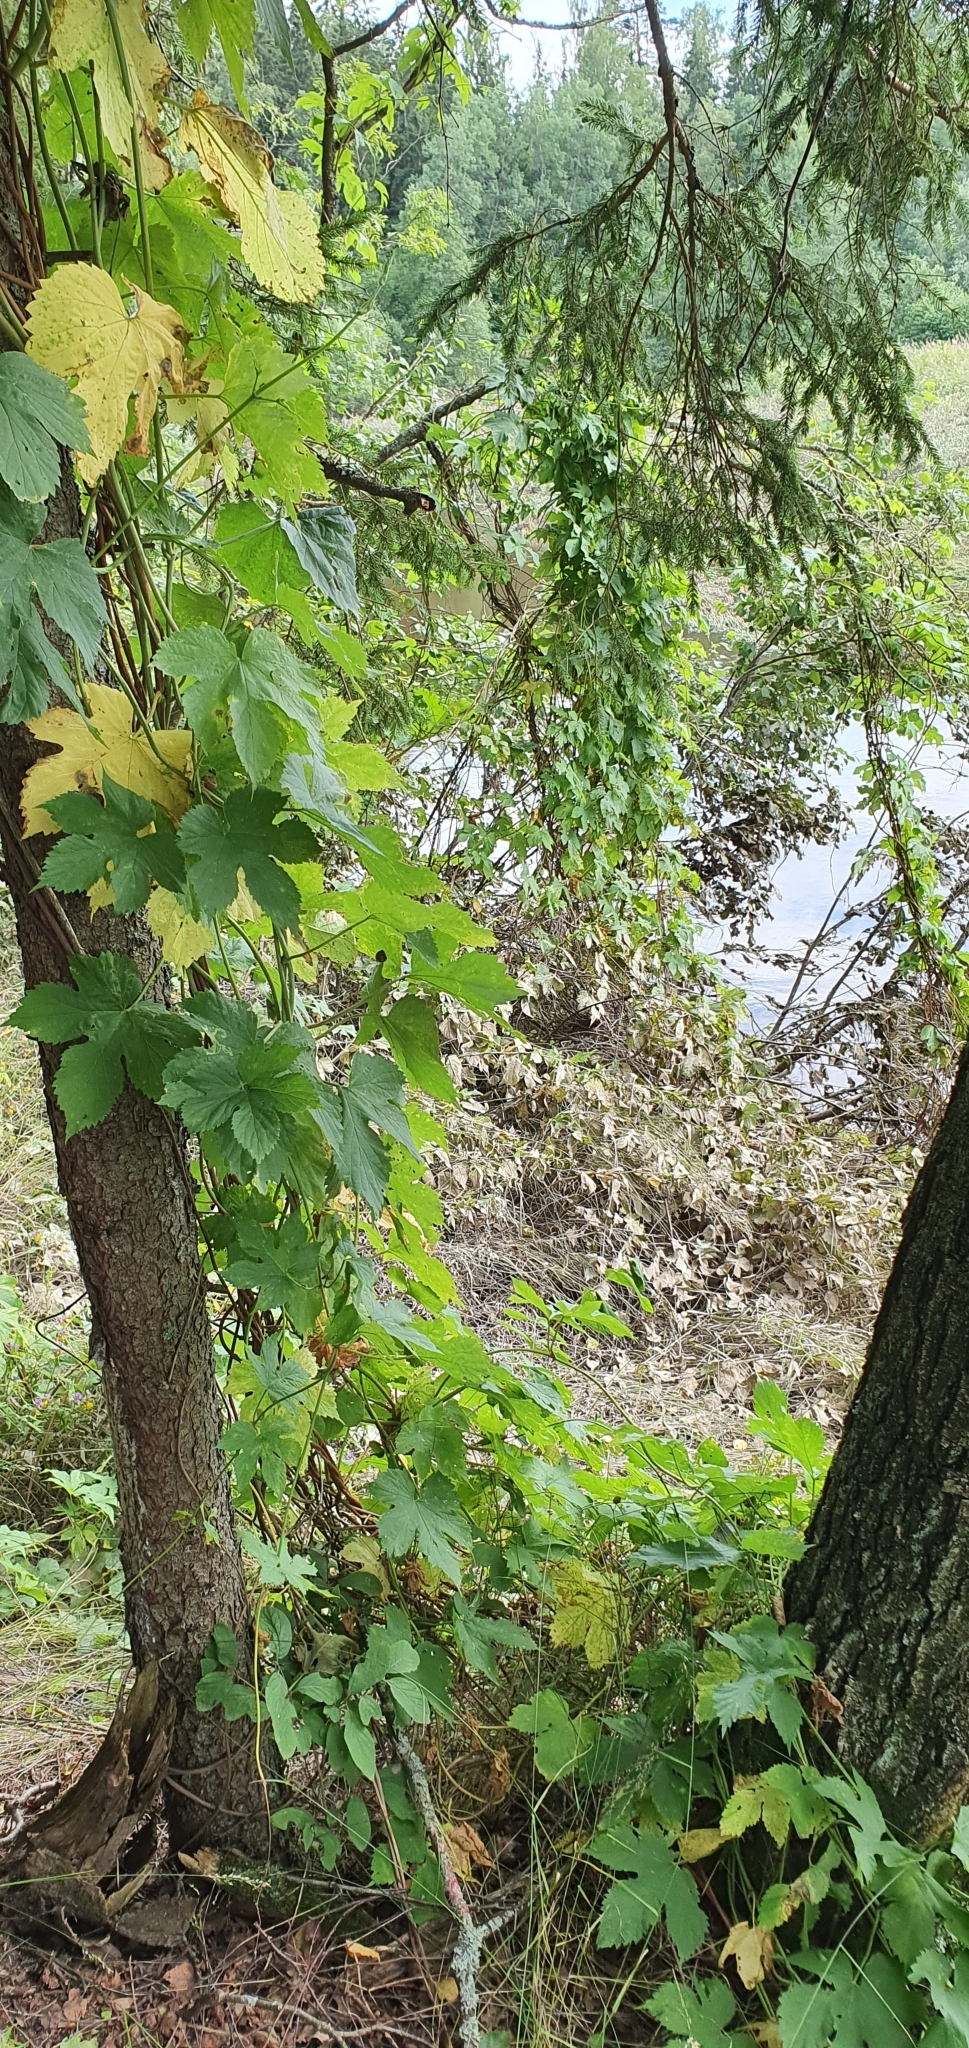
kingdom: Plantae
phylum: Tracheophyta
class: Magnoliopsida
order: Rosales
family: Cannabaceae
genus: Humulus
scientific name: Humulus lupulus
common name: Hop
